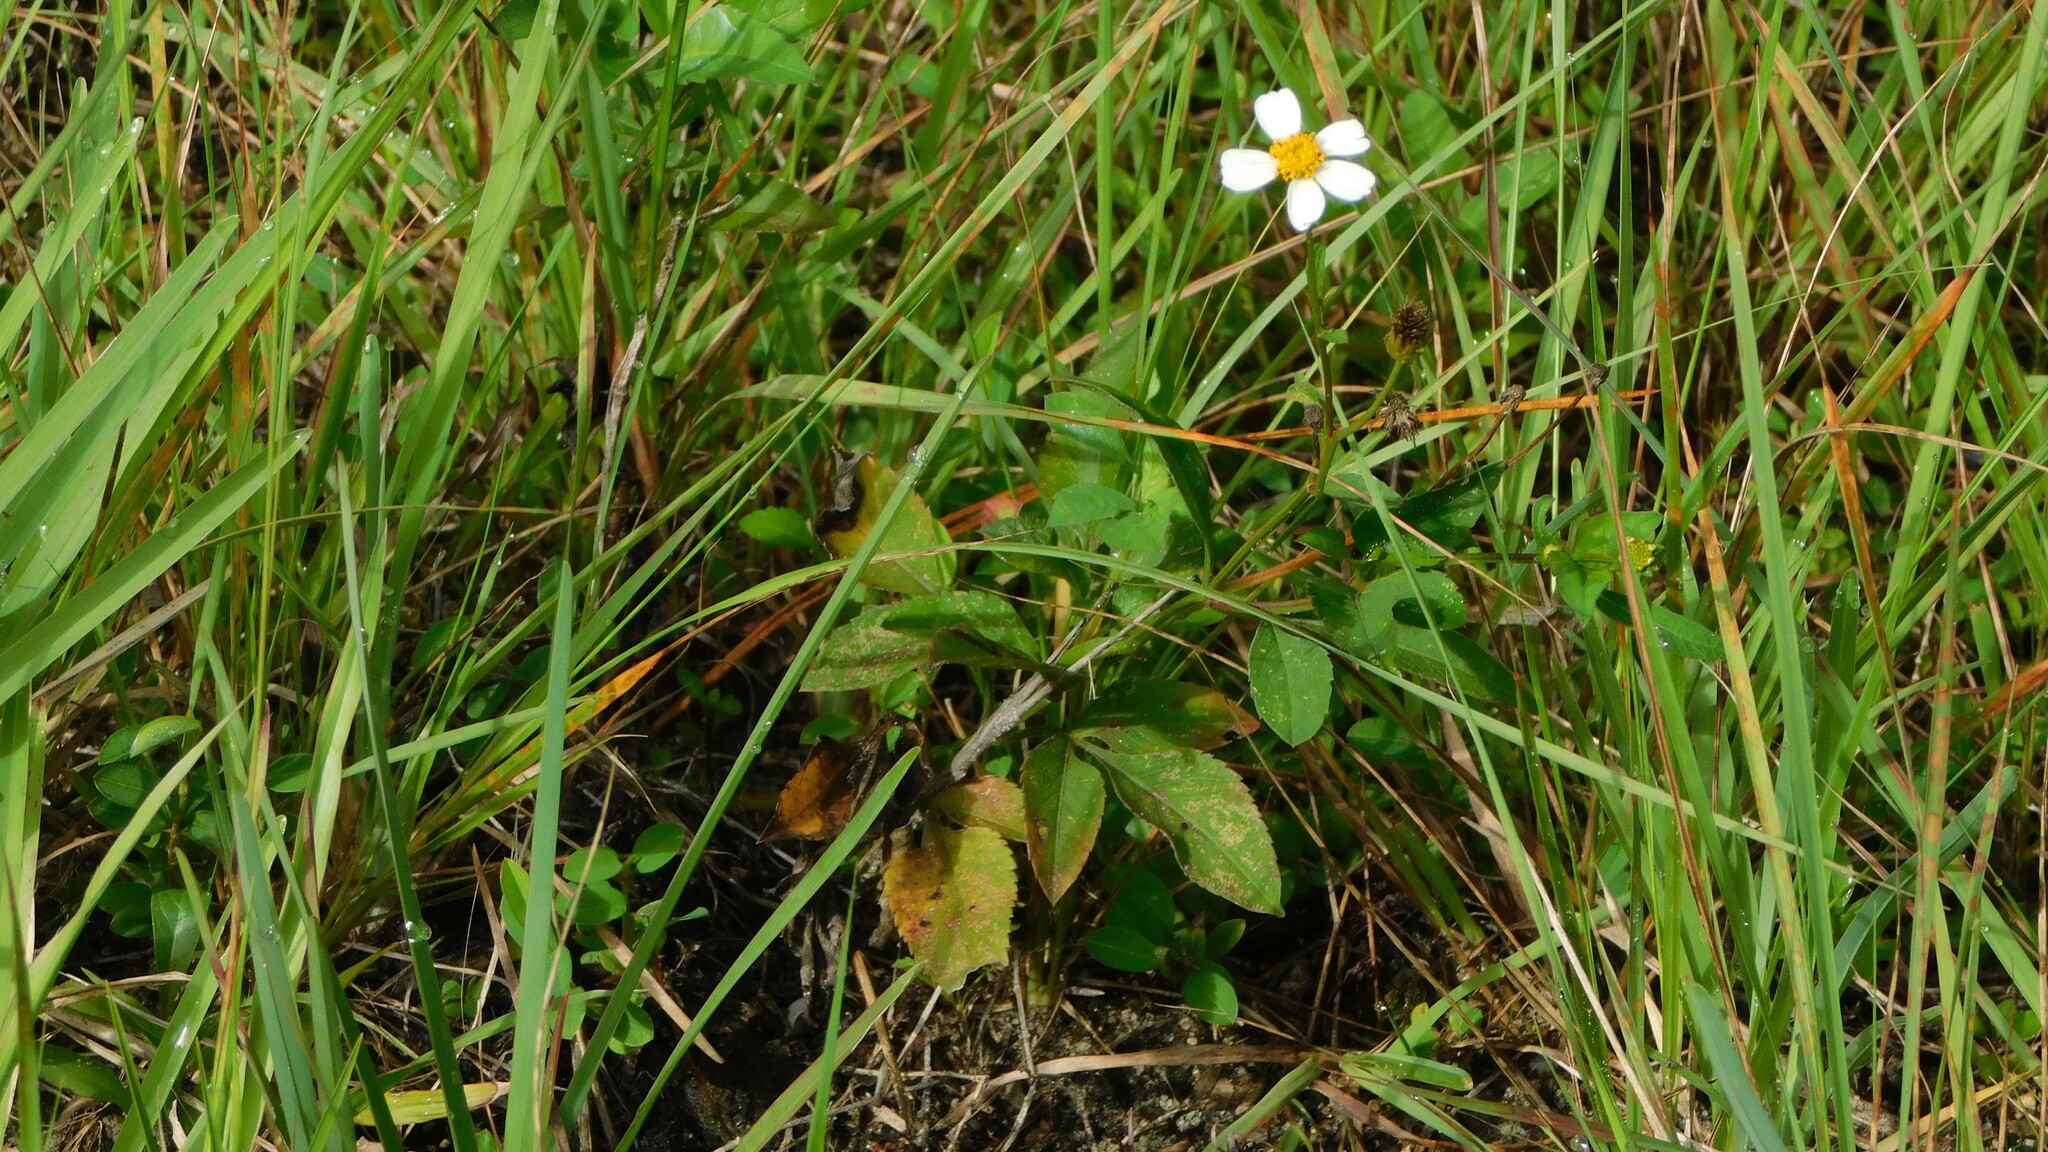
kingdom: Plantae
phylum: Tracheophyta
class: Magnoliopsida
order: Asterales
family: Asteraceae
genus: Bidens
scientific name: Bidens alba
